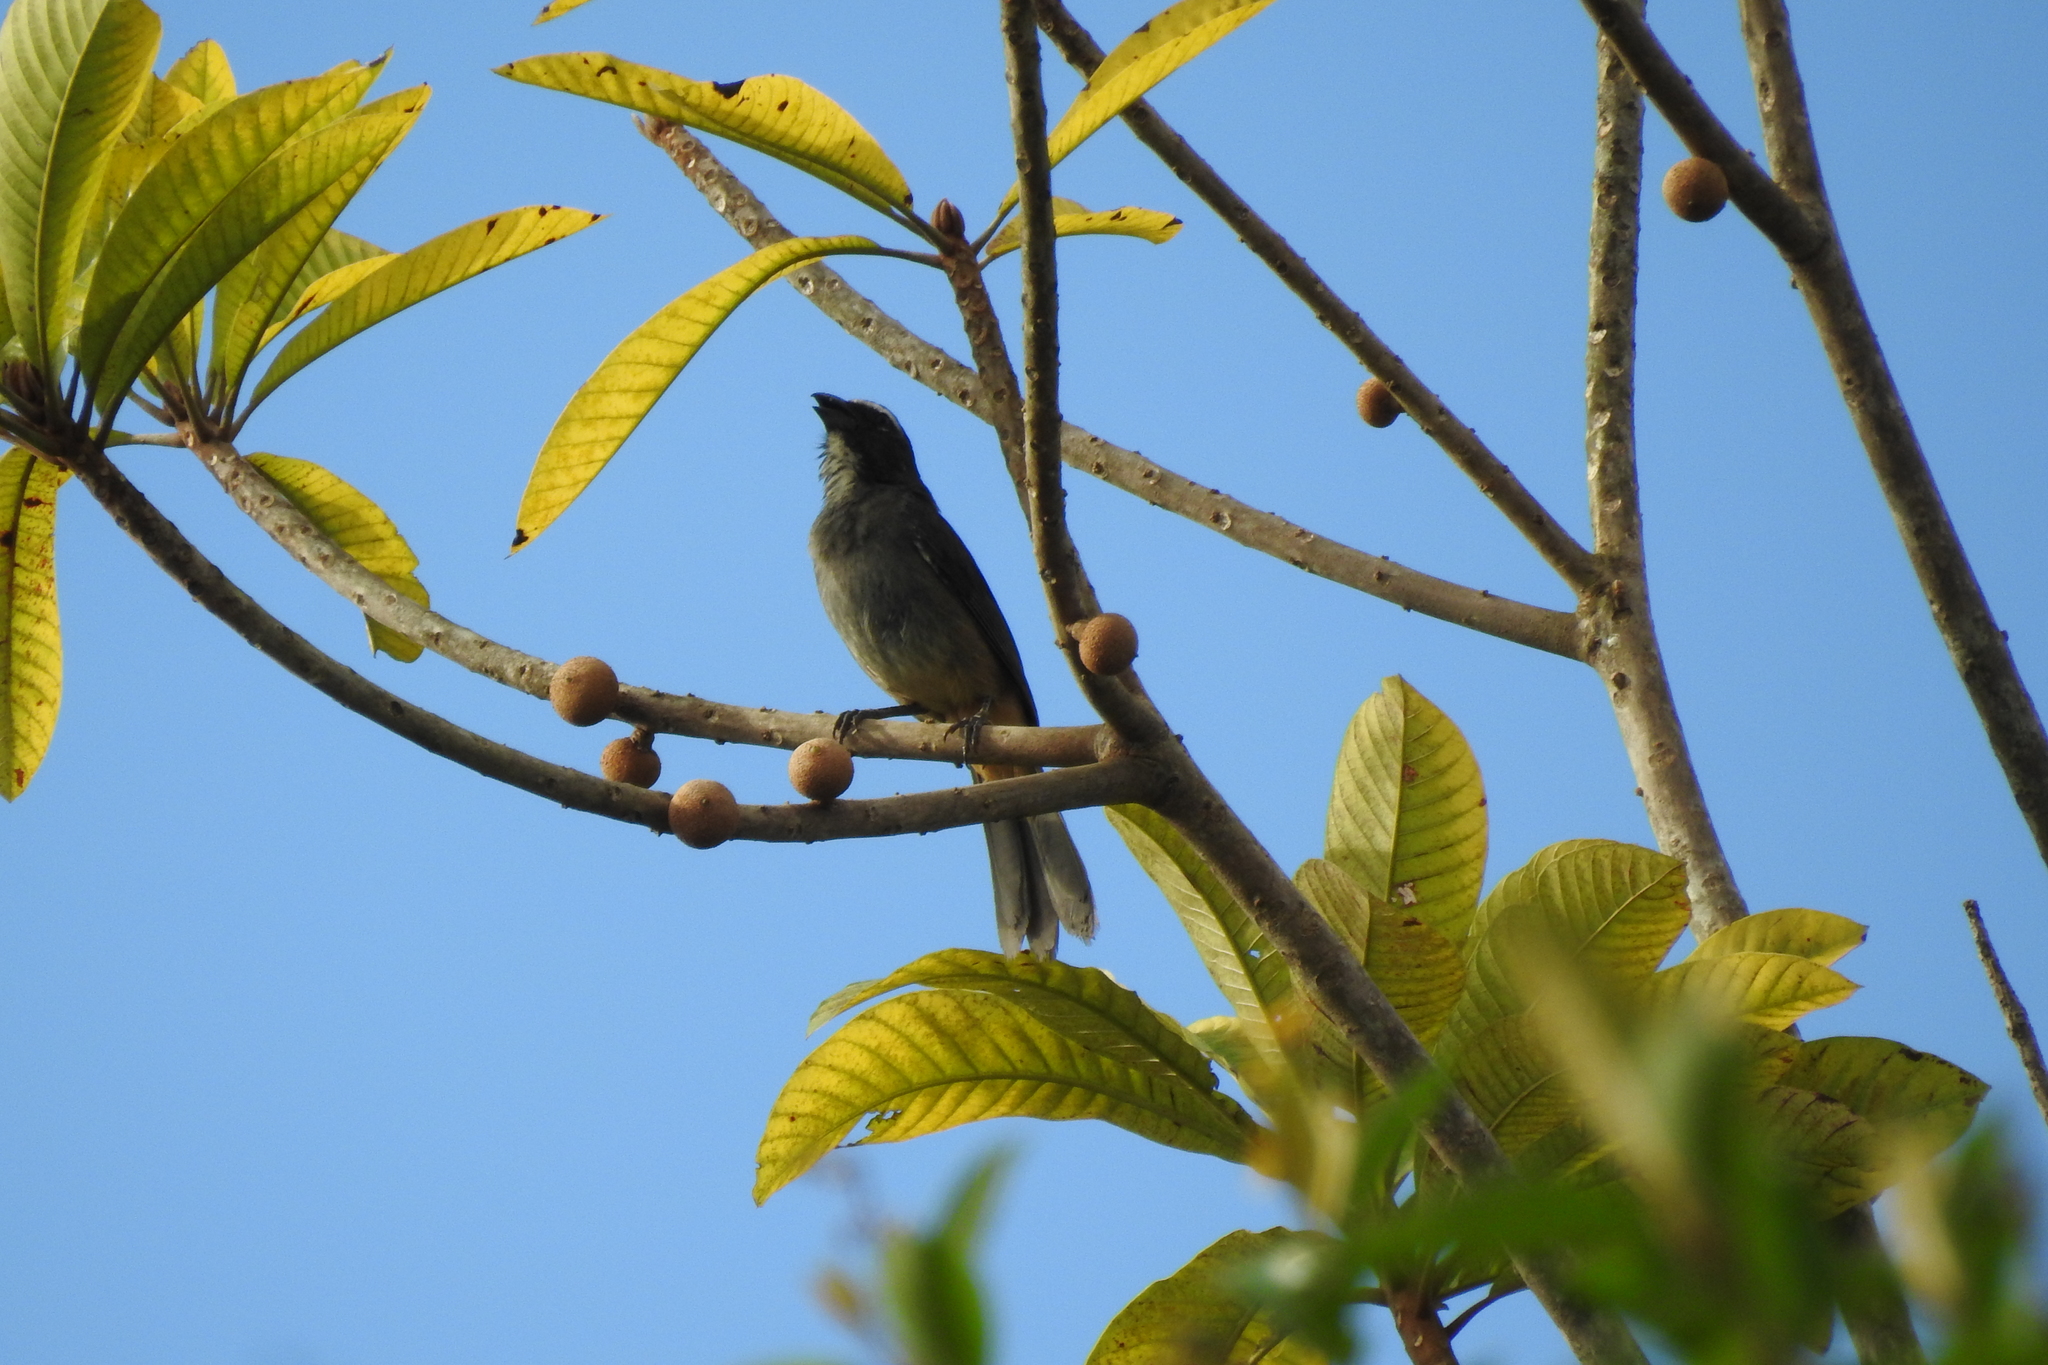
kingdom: Animalia
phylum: Chordata
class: Aves
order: Passeriformes
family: Thraupidae
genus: Saltator
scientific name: Saltator grandis
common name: Cinnamon-bellied saltator
